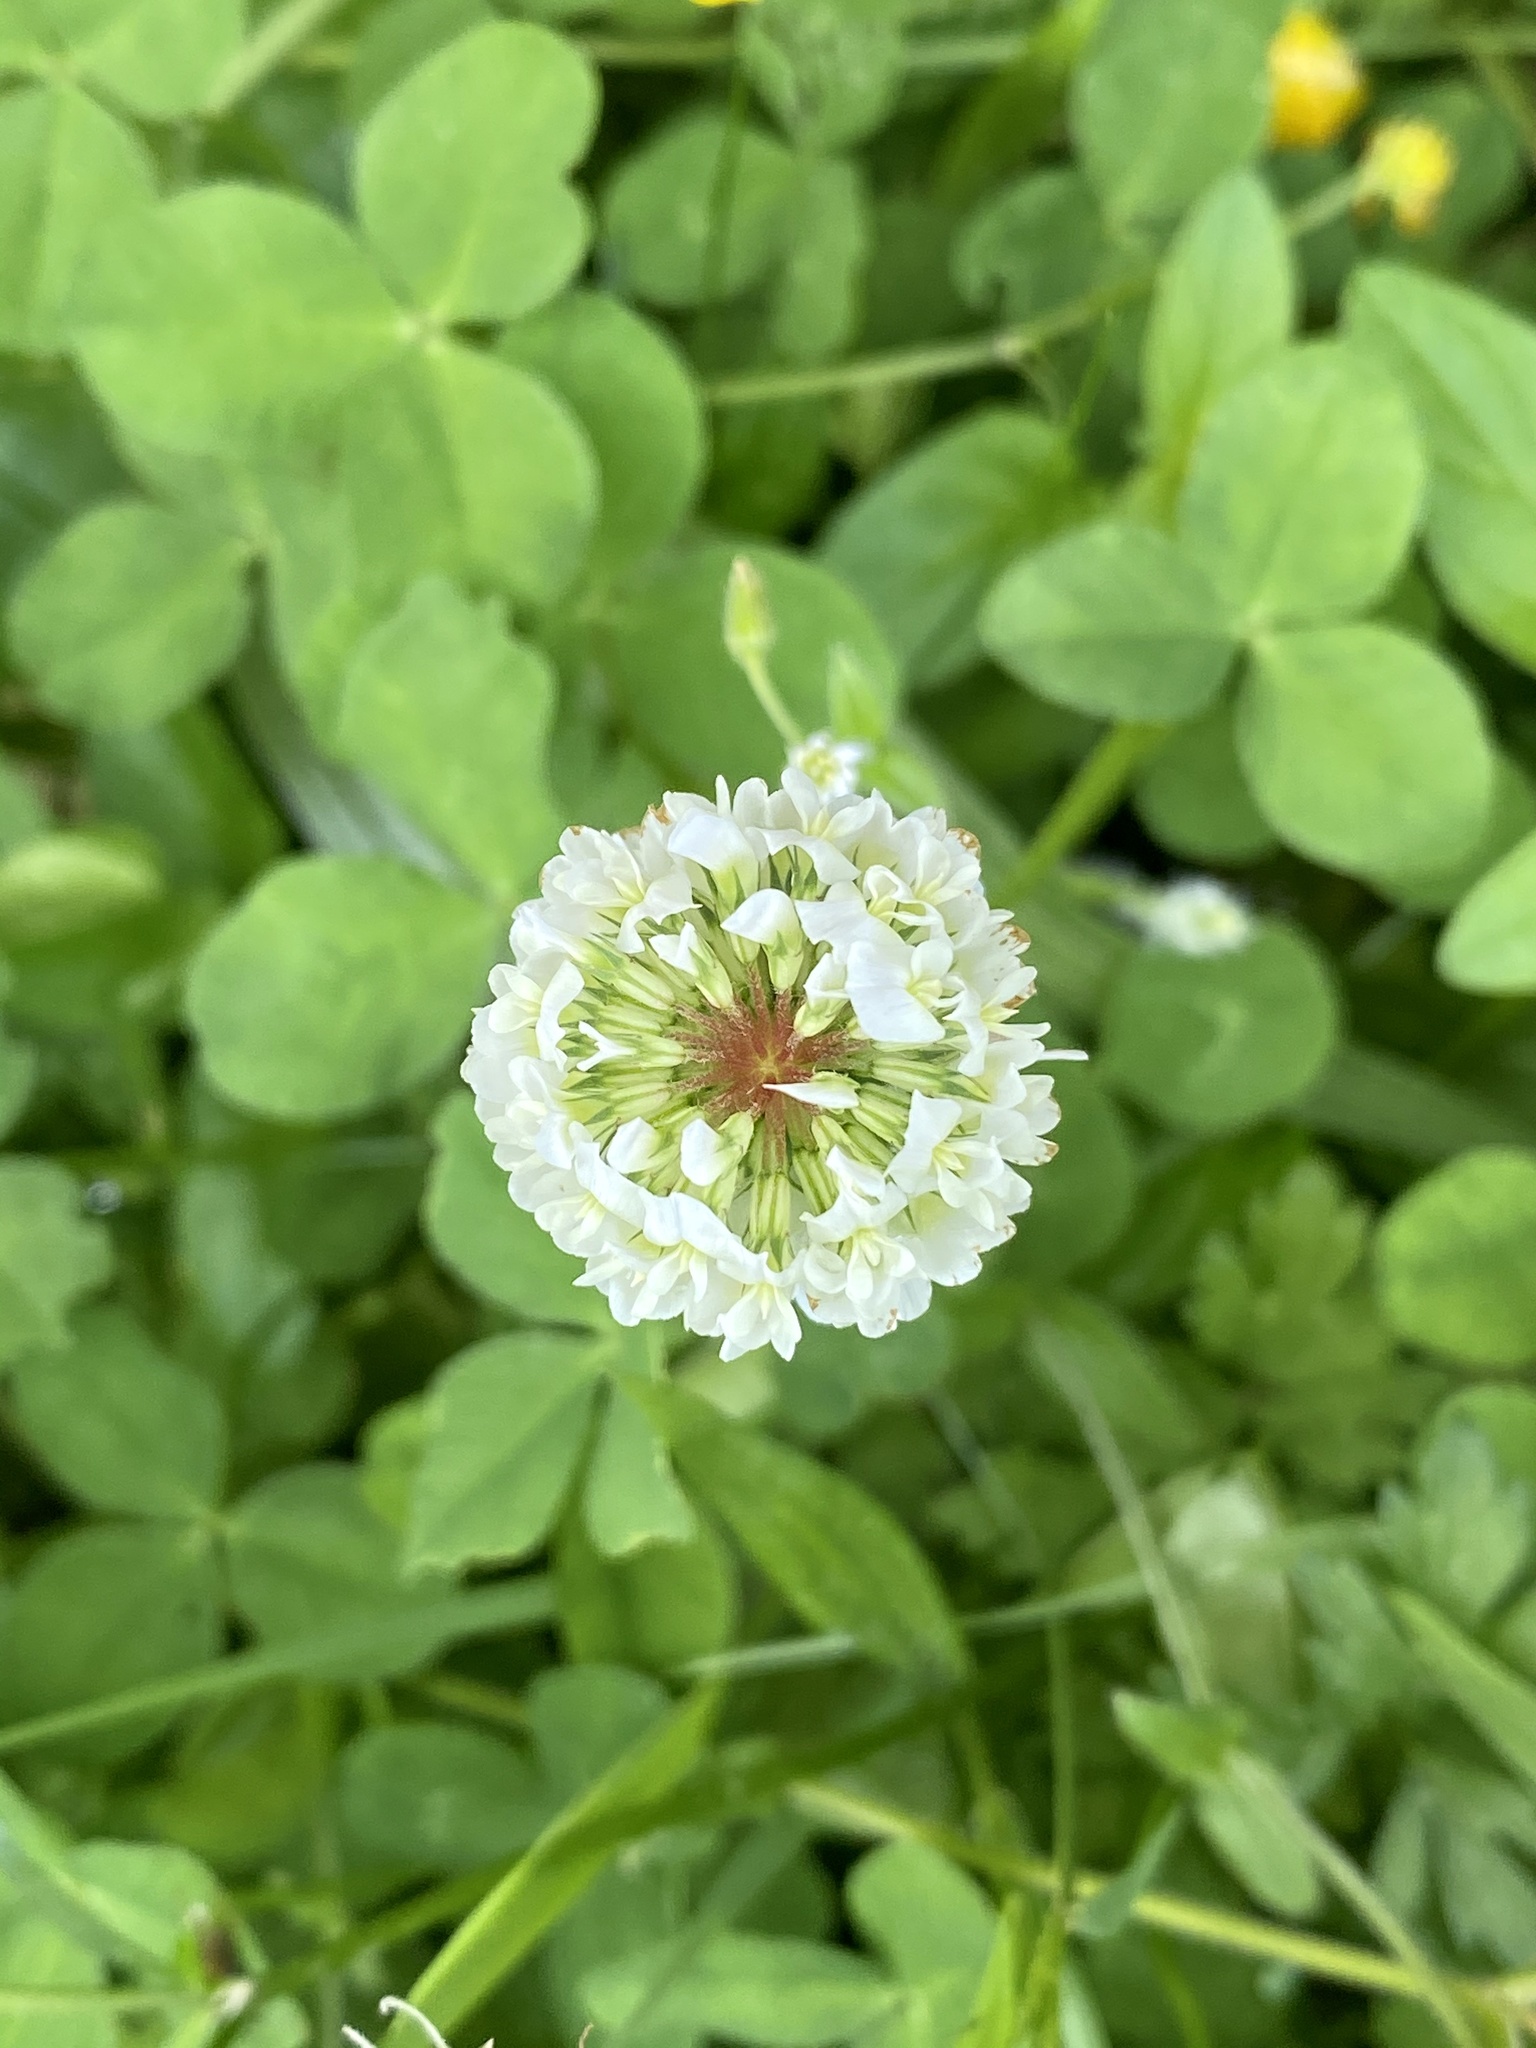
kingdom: Plantae
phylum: Tracheophyta
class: Magnoliopsida
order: Fabales
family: Fabaceae
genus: Trifolium
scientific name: Trifolium repens
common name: White clover
